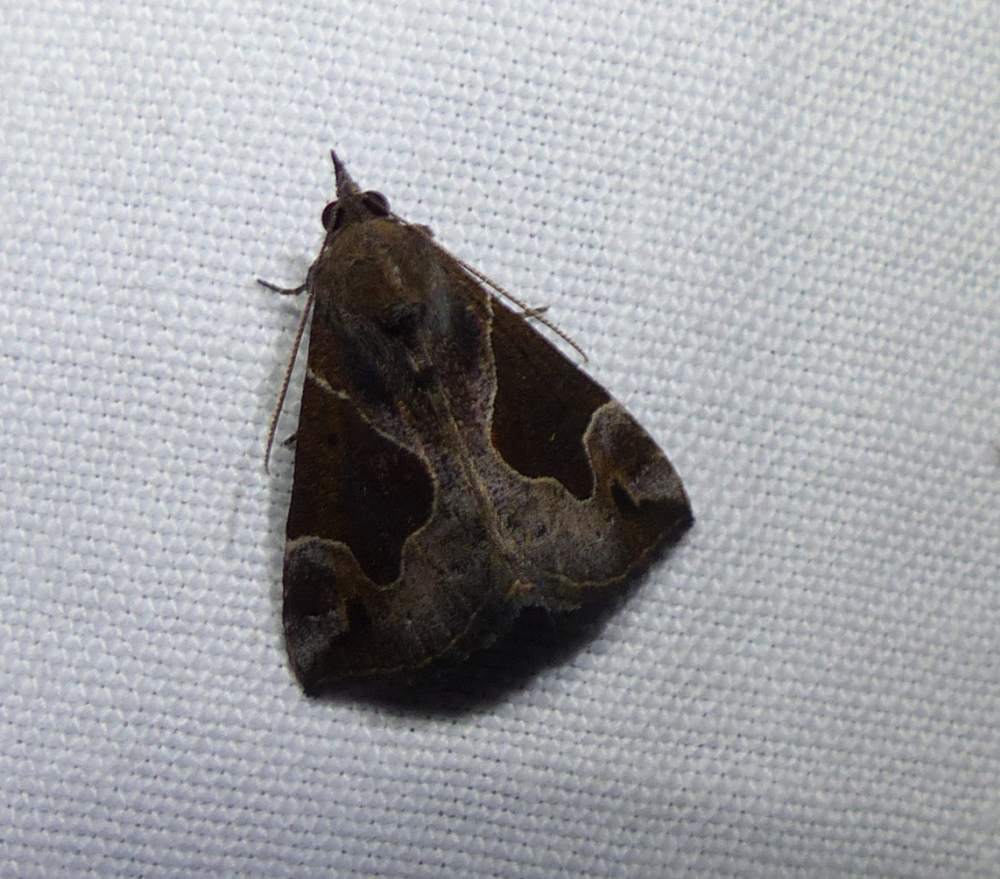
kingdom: Animalia
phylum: Arthropoda
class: Insecta
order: Lepidoptera
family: Erebidae
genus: Hypena
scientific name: Hypena manalis
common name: Flowing-line bomolocha moth
